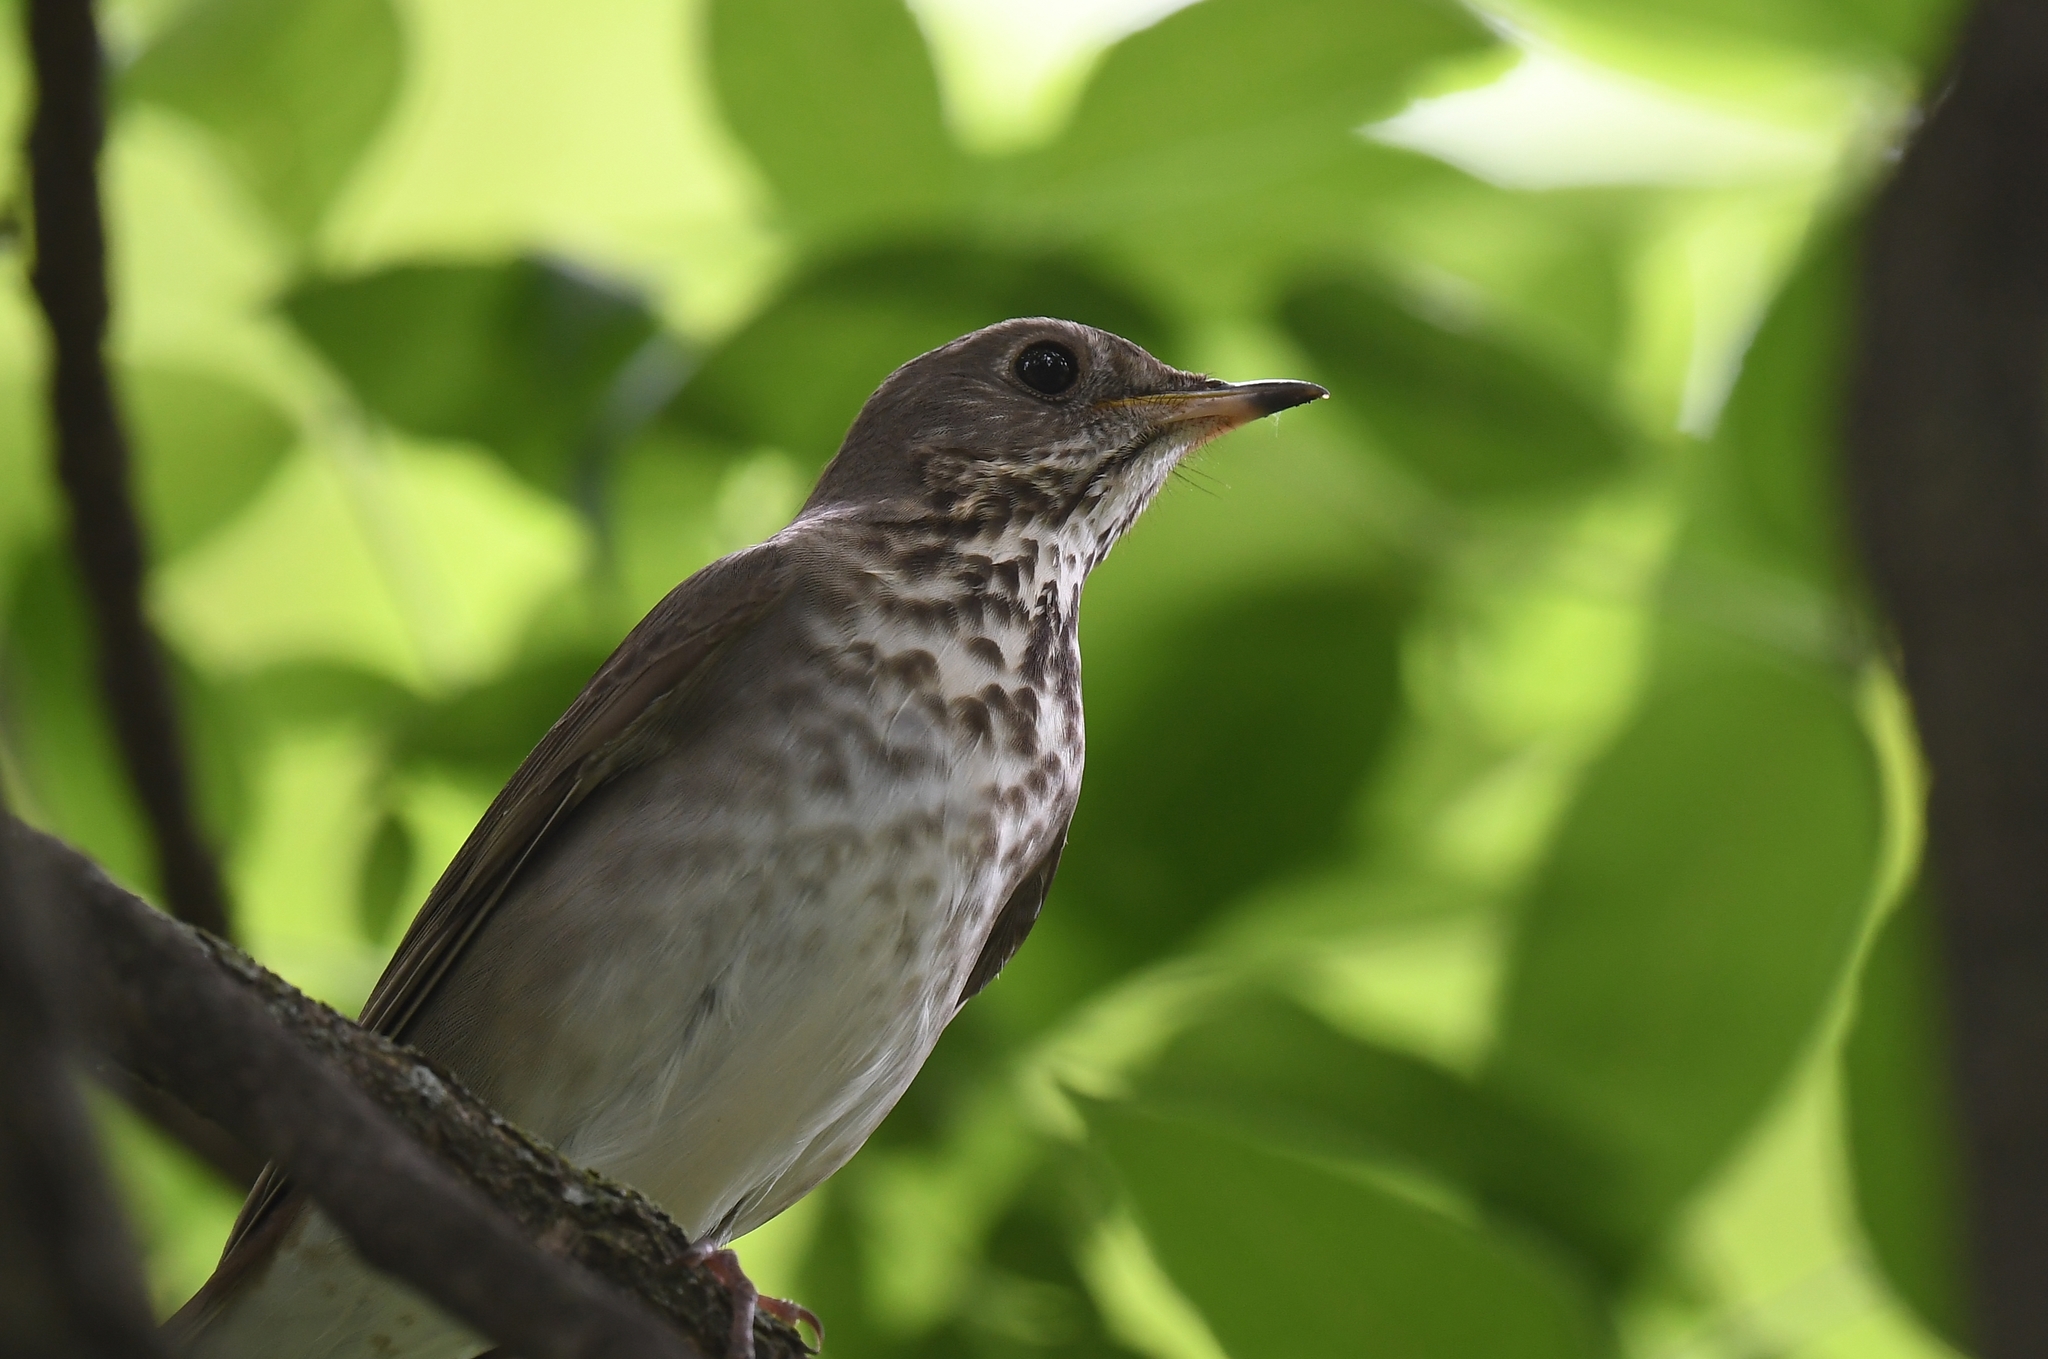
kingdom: Animalia
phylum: Chordata
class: Aves
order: Passeriformes
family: Turdidae
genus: Catharus
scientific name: Catharus minimus
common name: Grey-cheeked thrush
